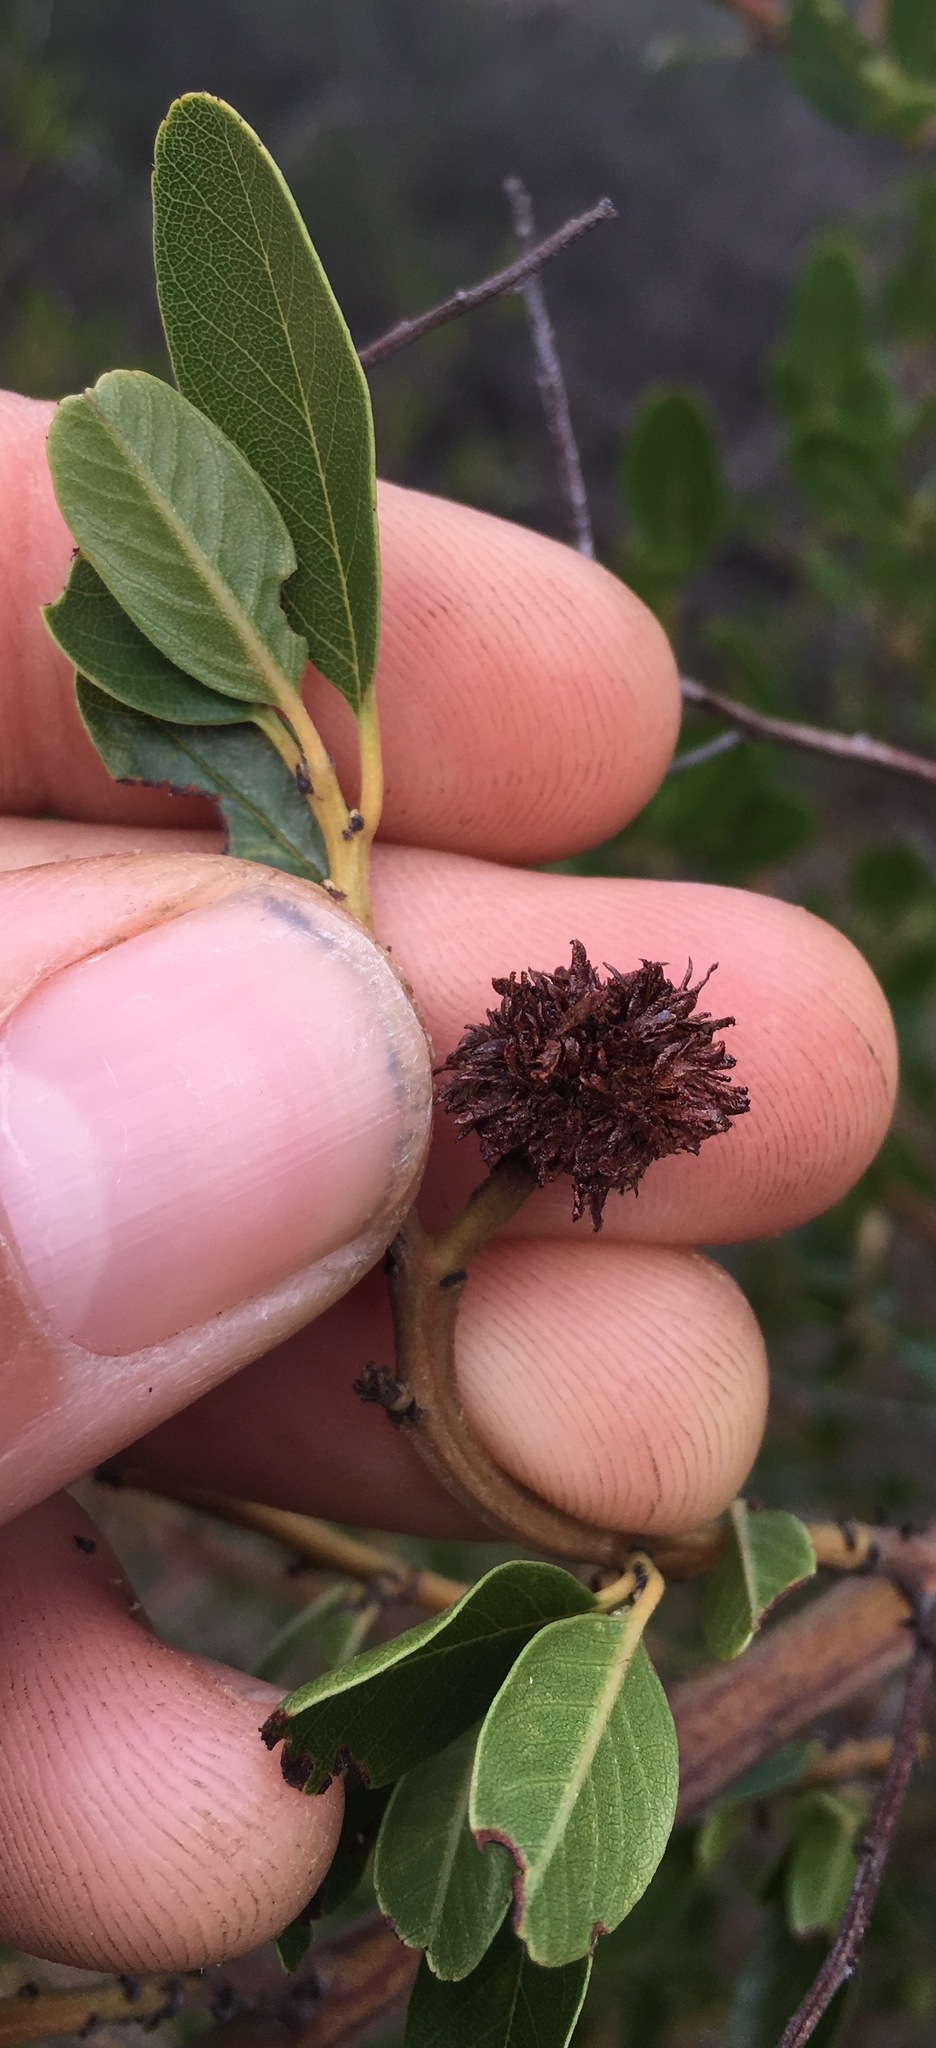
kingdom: Animalia
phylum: Arthropoda
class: Insecta
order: Diptera
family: Cecidomyiidae
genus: Asphondylia
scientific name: Asphondylia ceanothi
